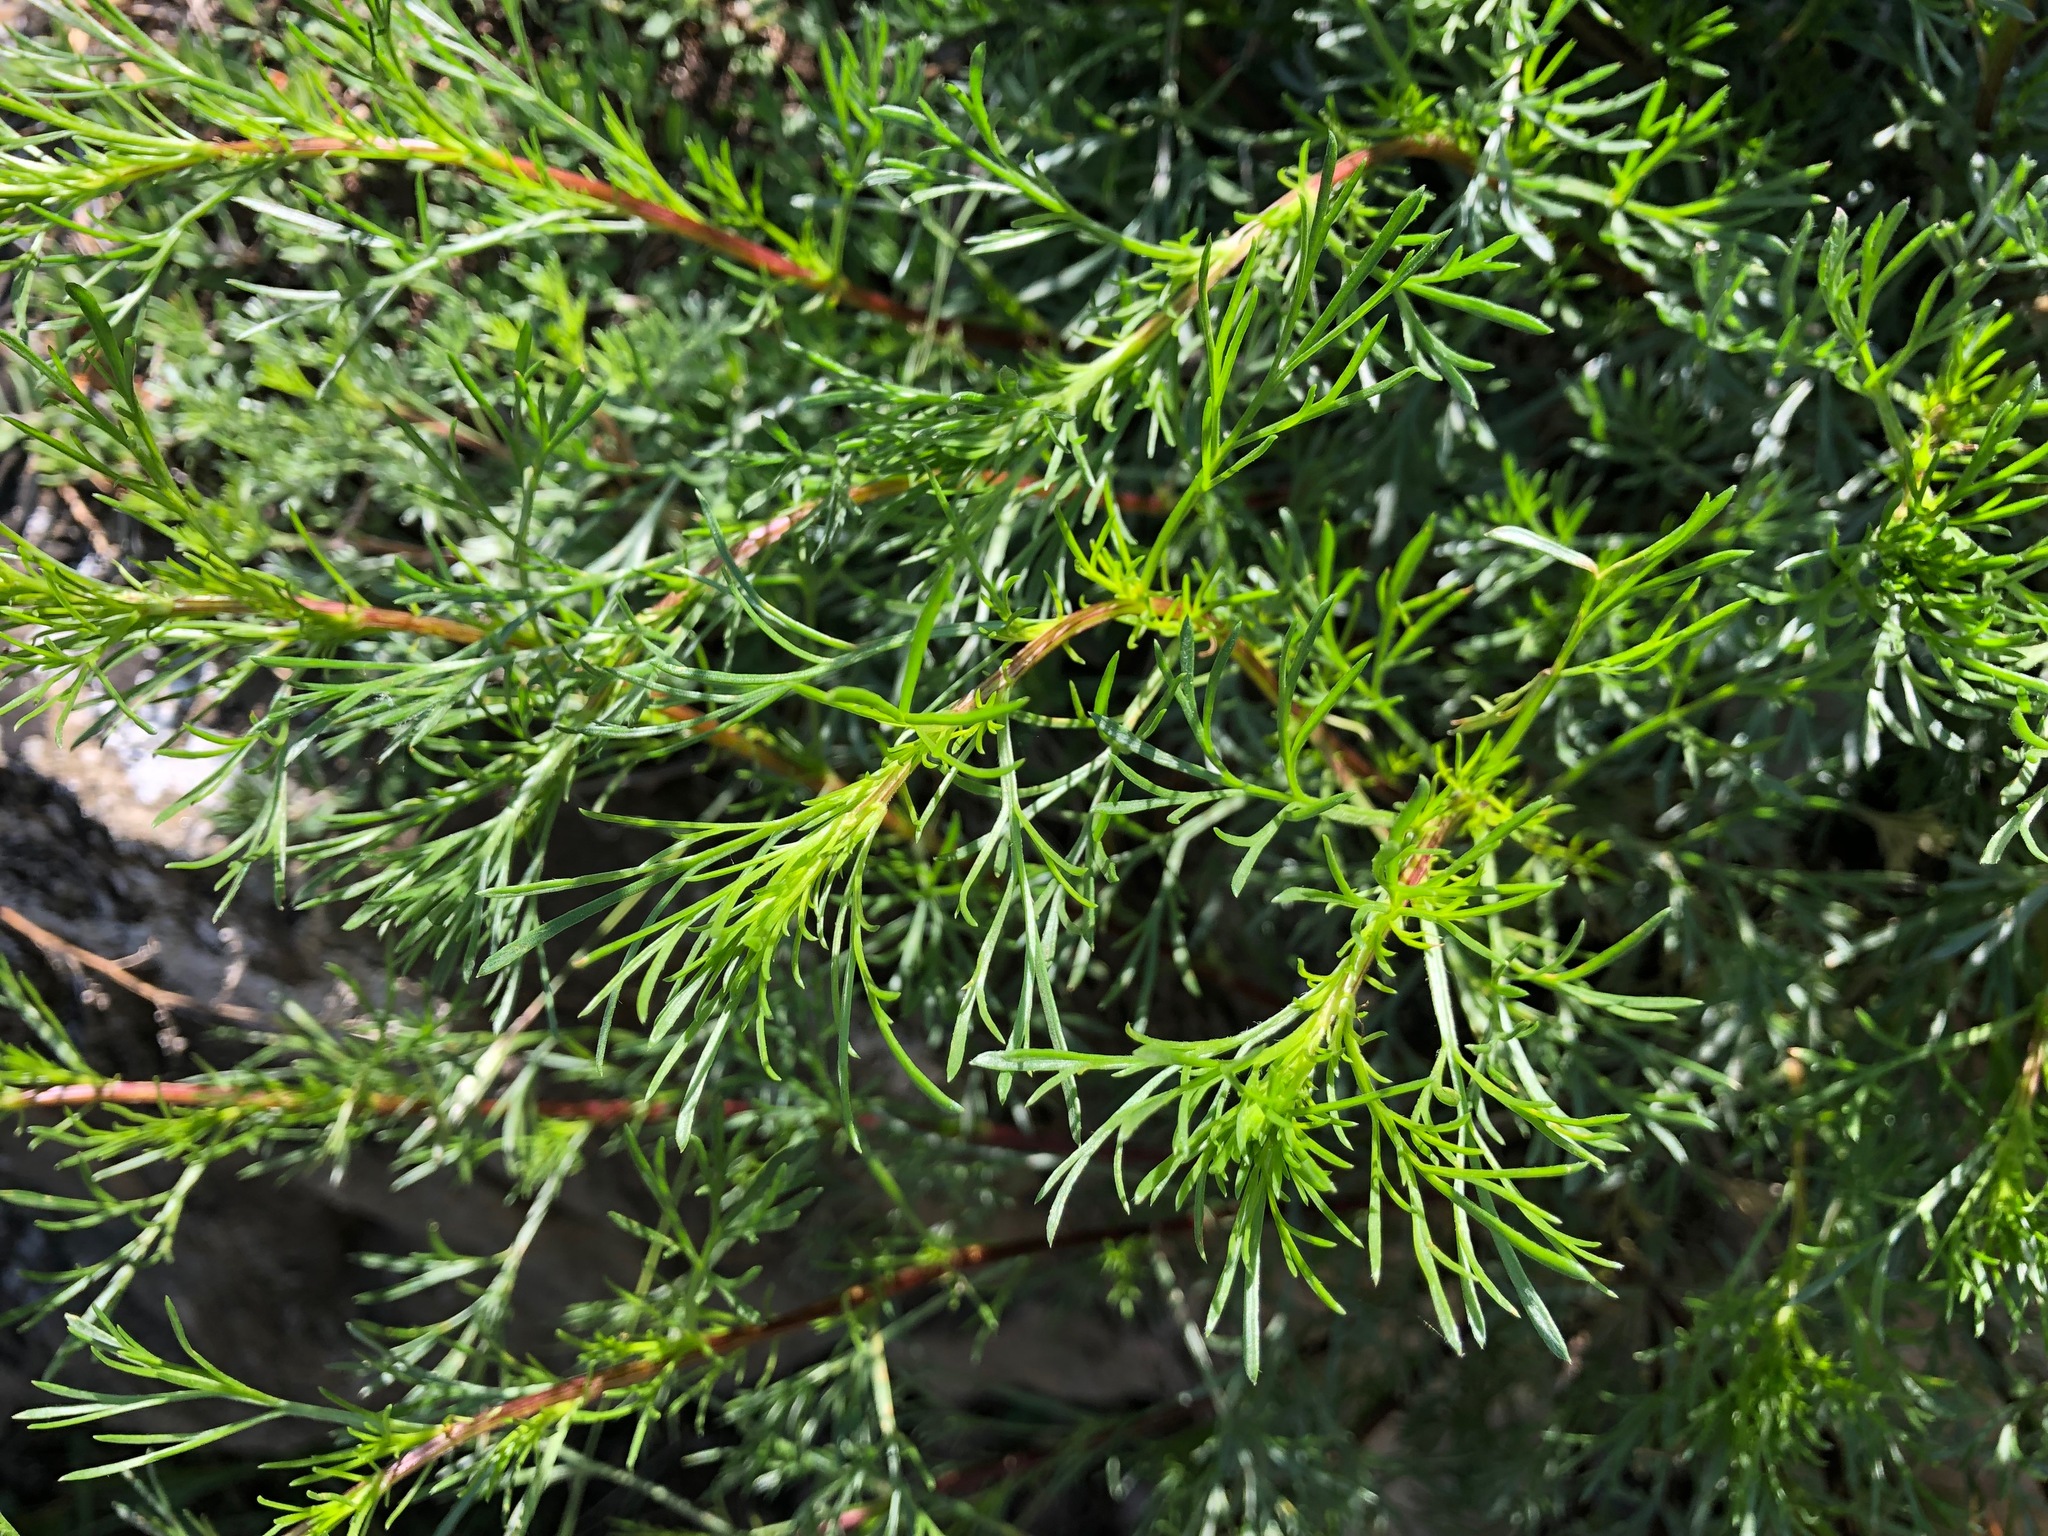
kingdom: Plantae
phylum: Tracheophyta
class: Magnoliopsida
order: Asterales
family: Asteraceae
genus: Artemisia
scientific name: Artemisia campestris
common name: Field wormwood
